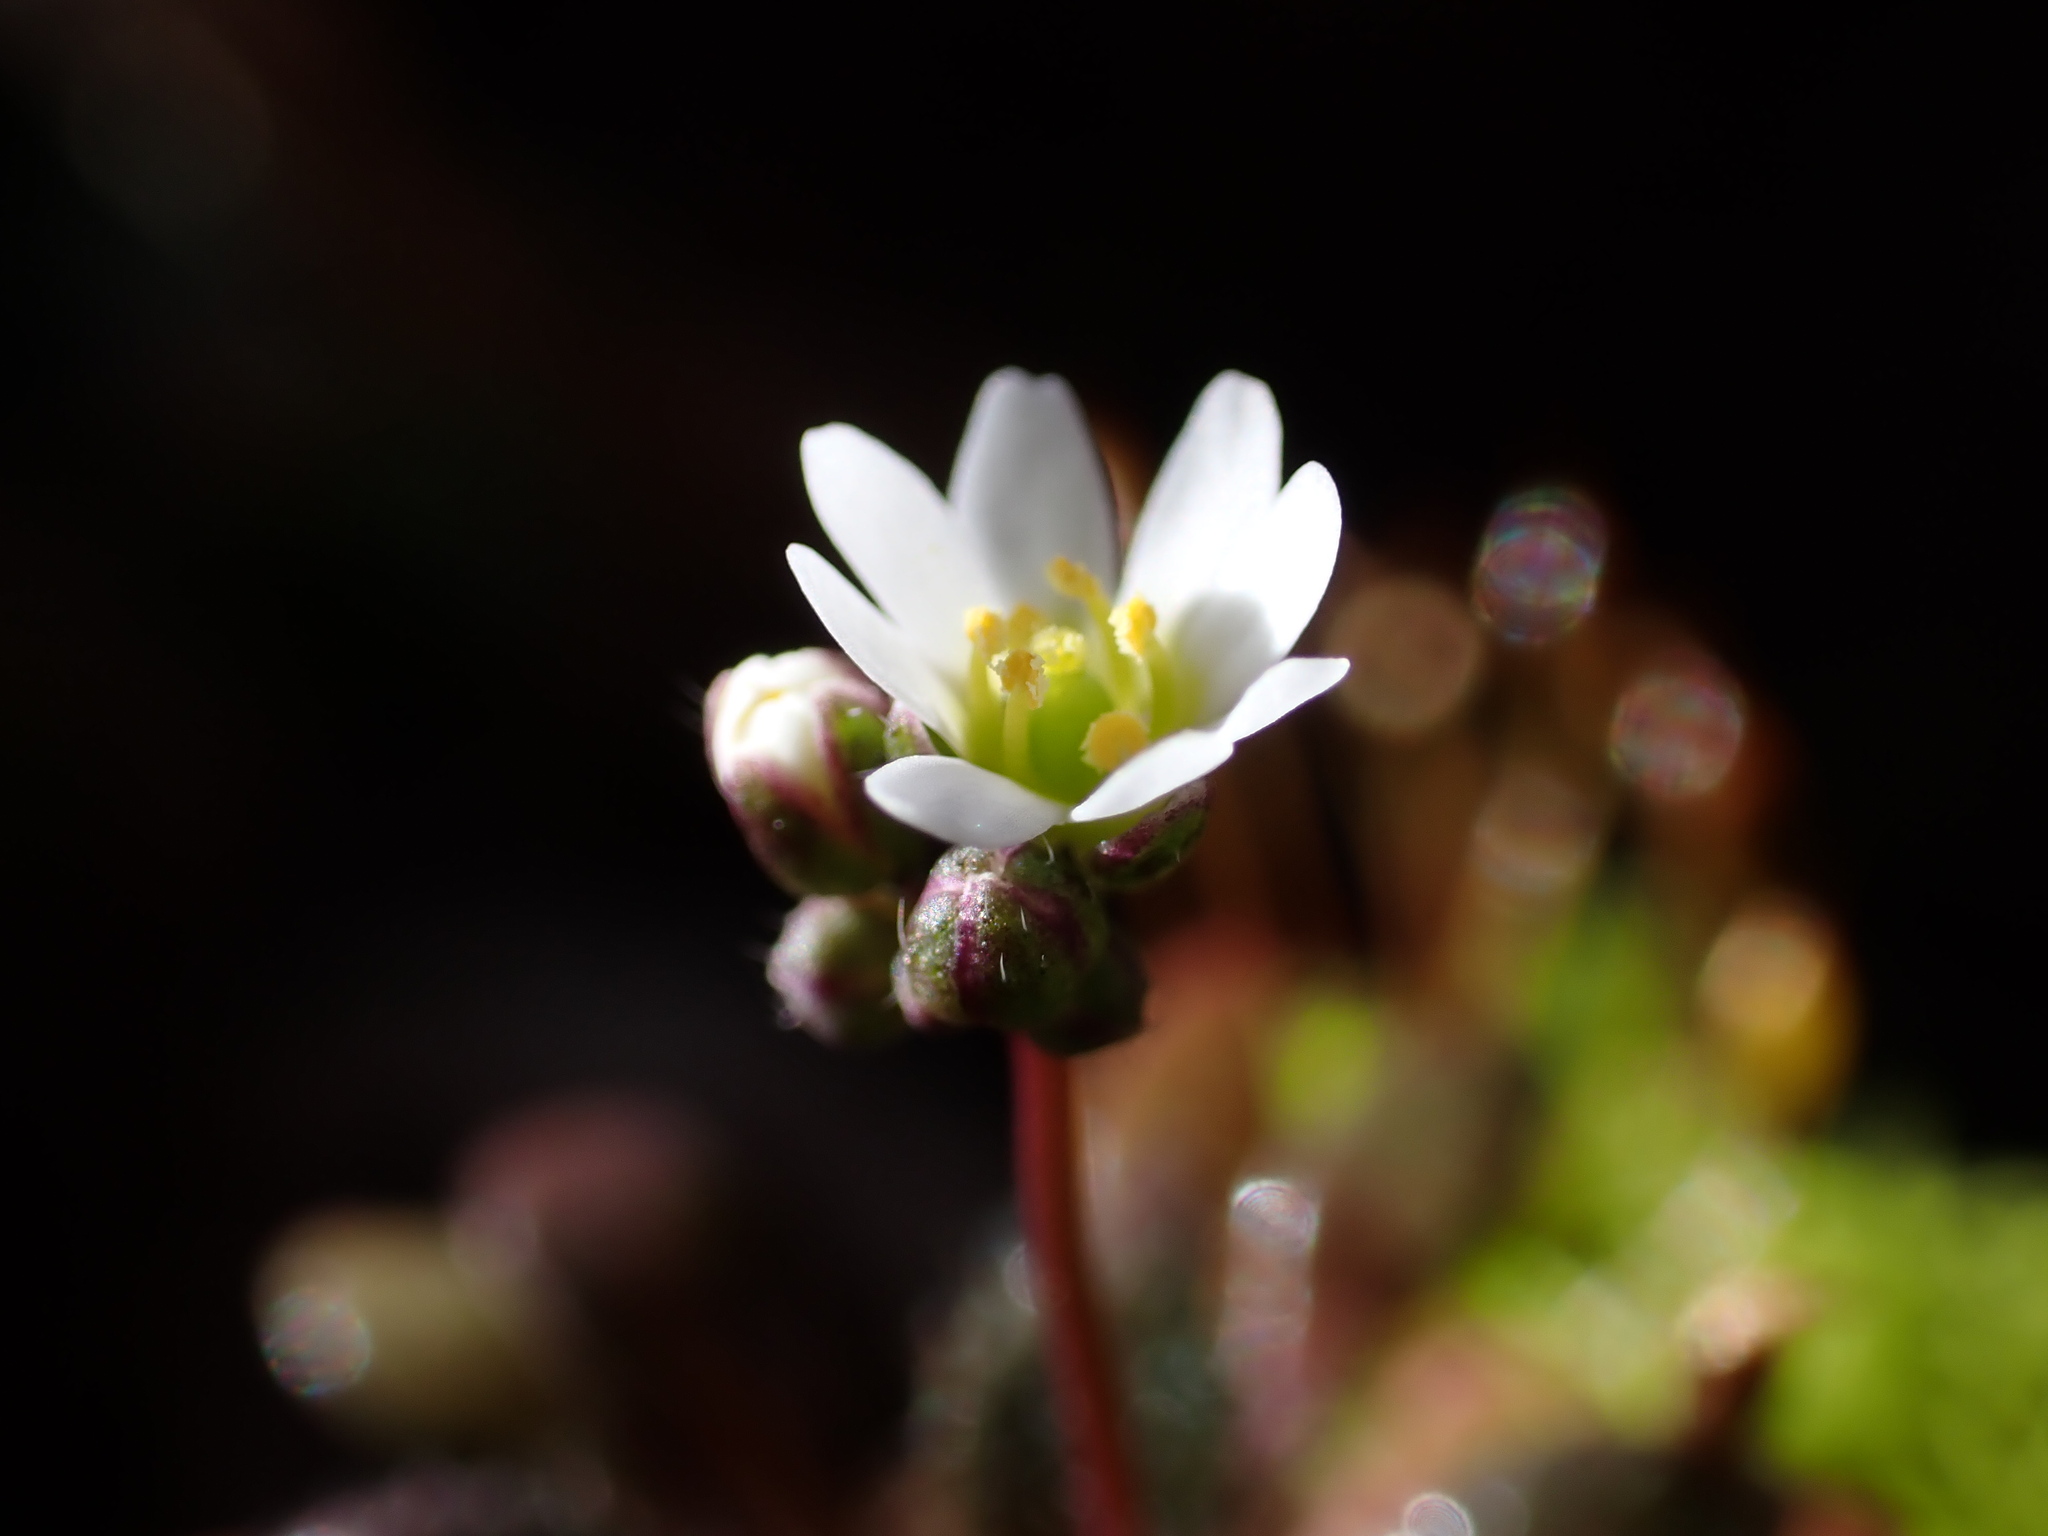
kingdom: Plantae
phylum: Tracheophyta
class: Magnoliopsida
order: Brassicales
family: Brassicaceae
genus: Draba
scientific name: Draba verna
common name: Spring draba
